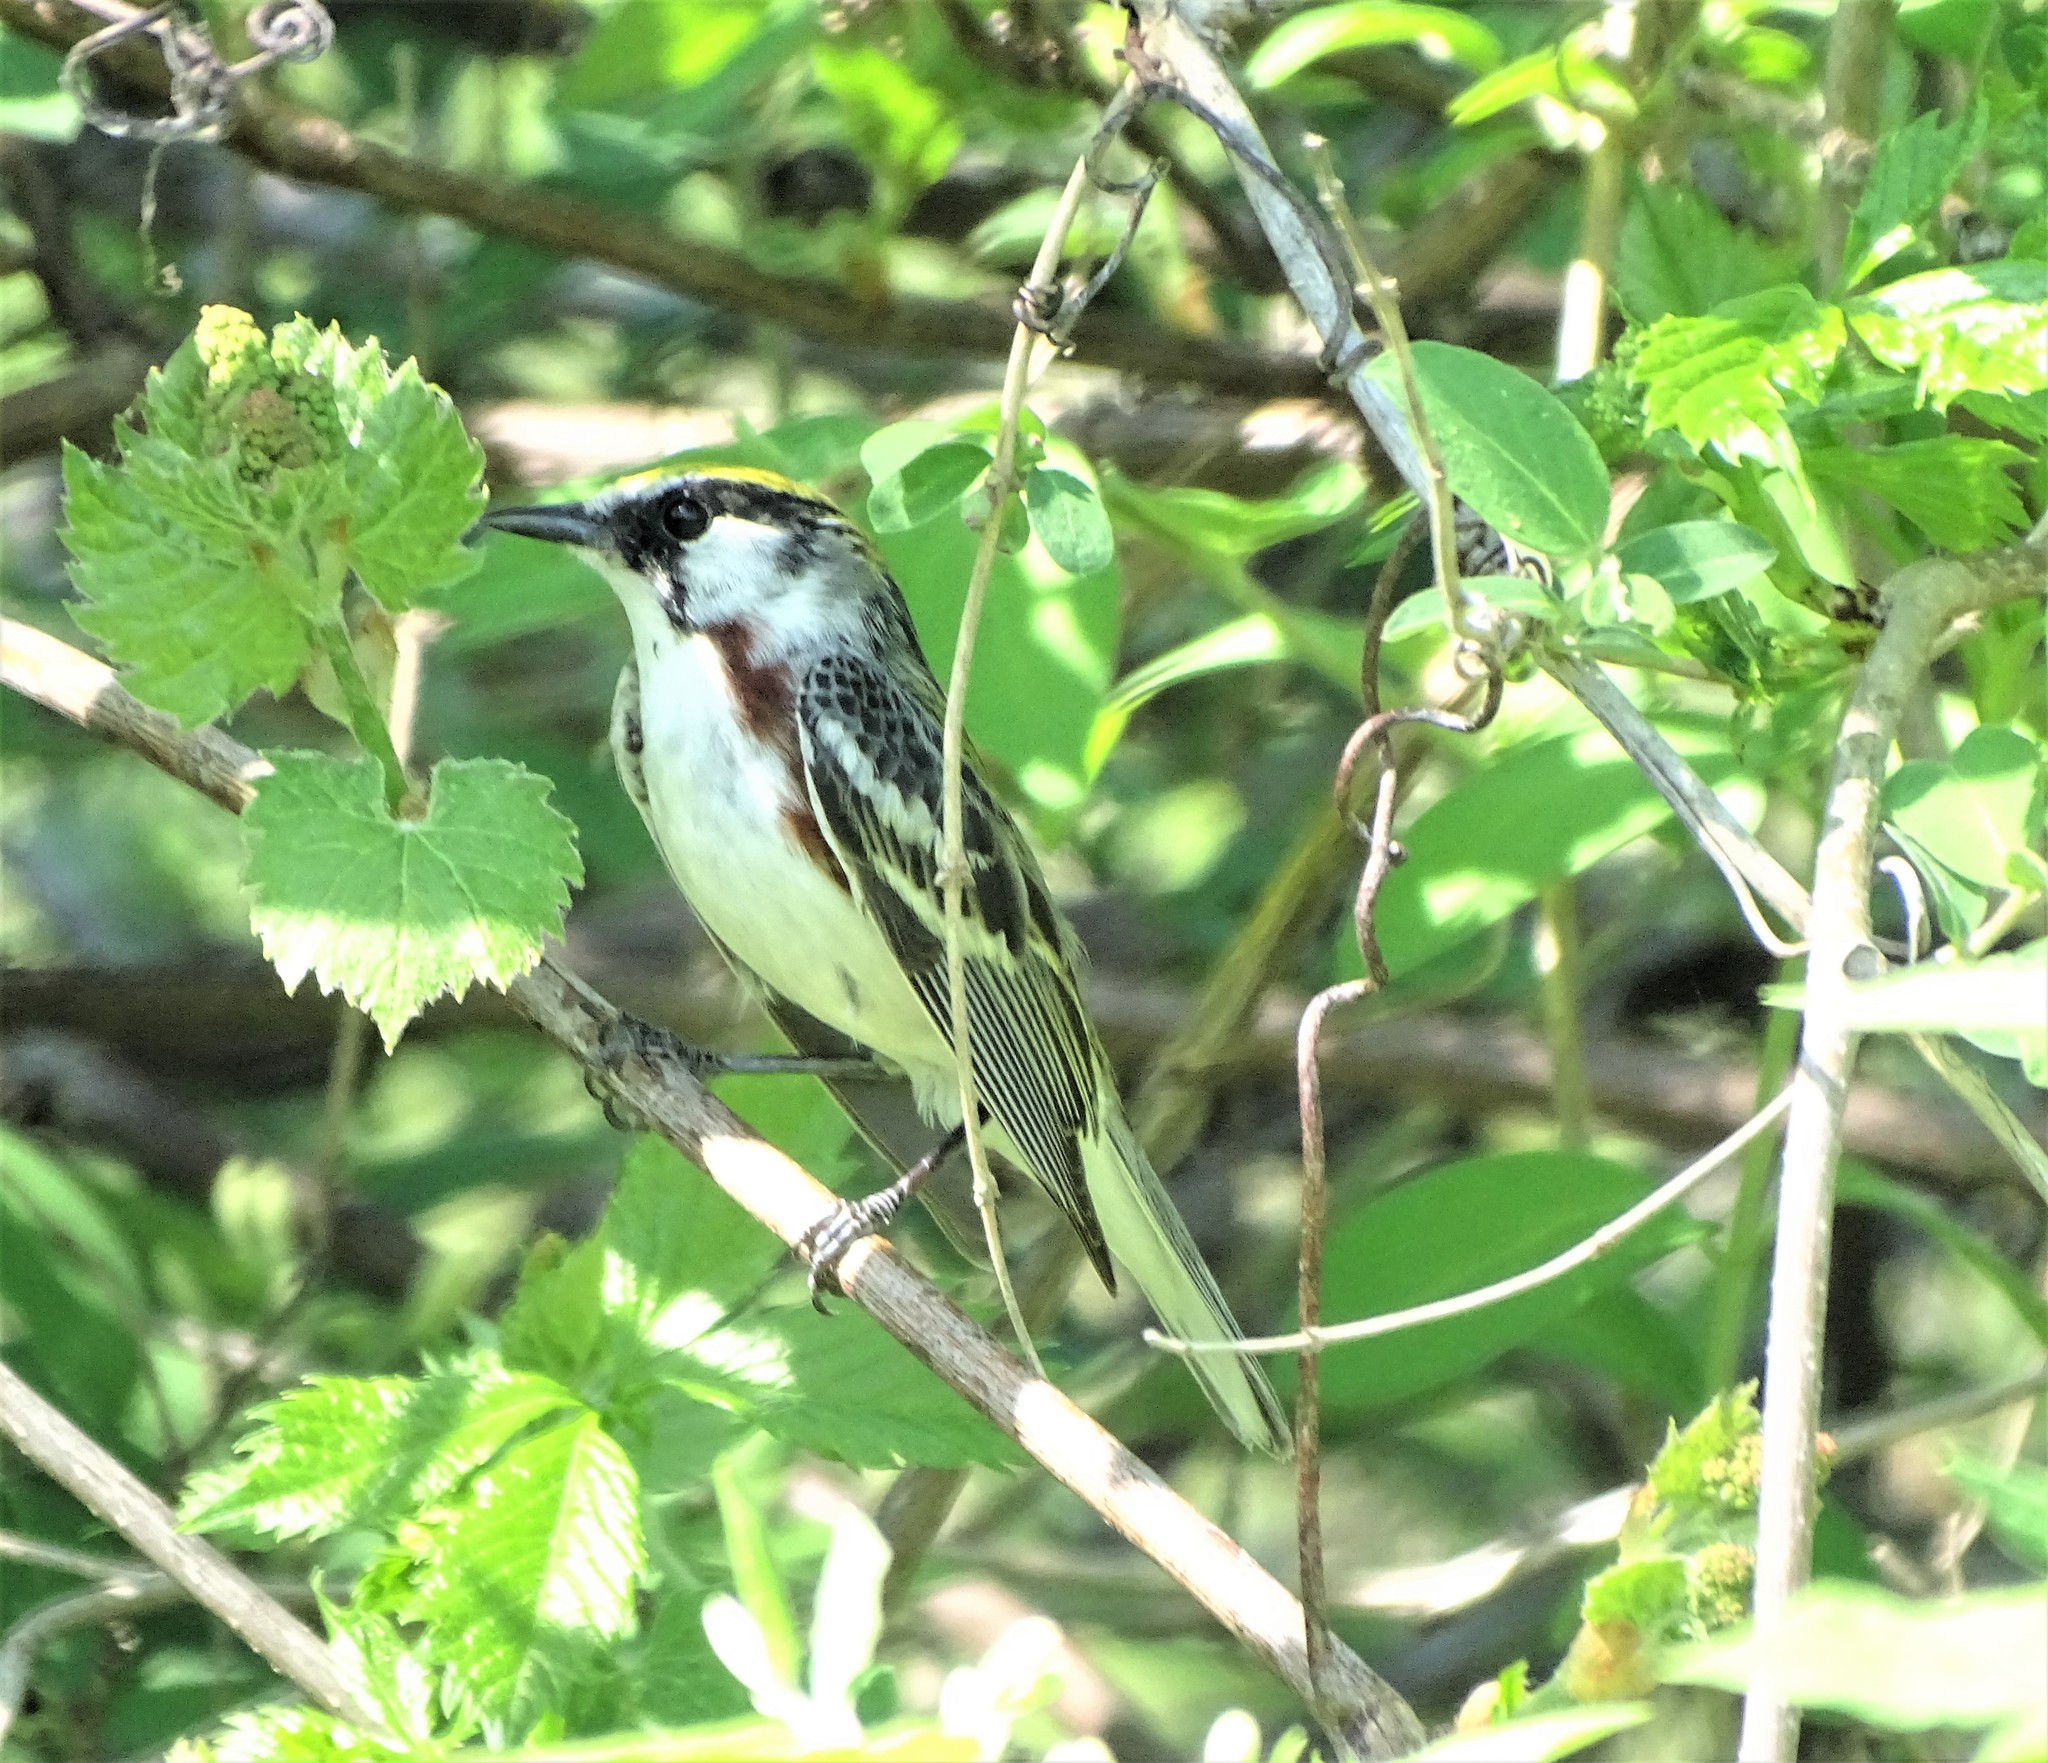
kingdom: Animalia
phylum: Chordata
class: Aves
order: Passeriformes
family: Parulidae
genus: Setophaga
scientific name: Setophaga pensylvanica
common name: Chestnut-sided warbler
